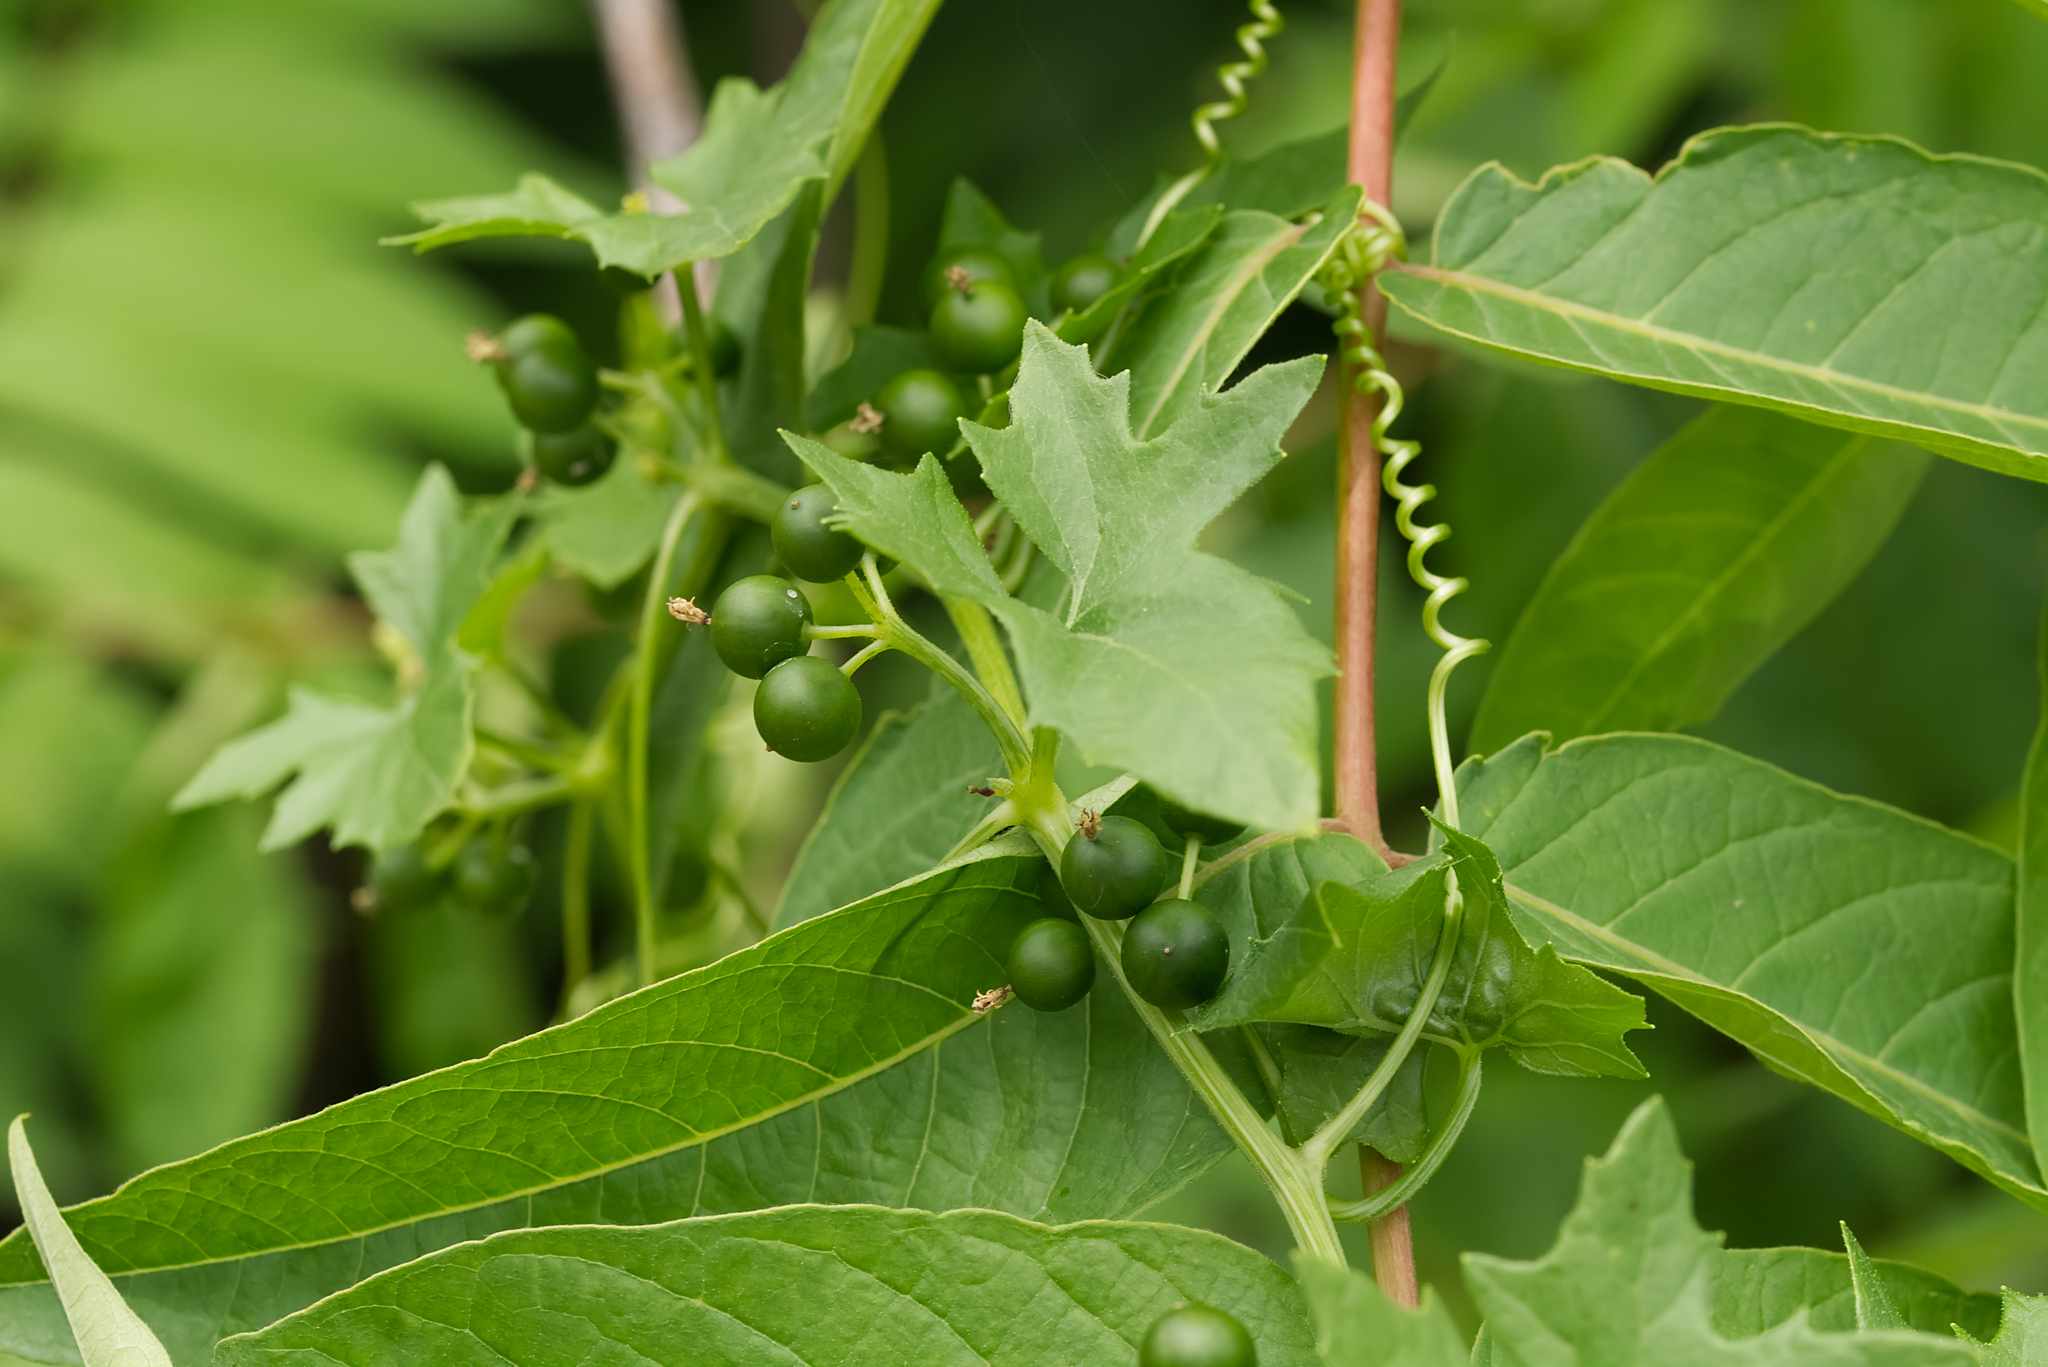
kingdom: Plantae
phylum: Tracheophyta
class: Magnoliopsida
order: Cucurbitales
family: Cucurbitaceae
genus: Bryonia
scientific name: Bryonia alba
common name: White bryony
